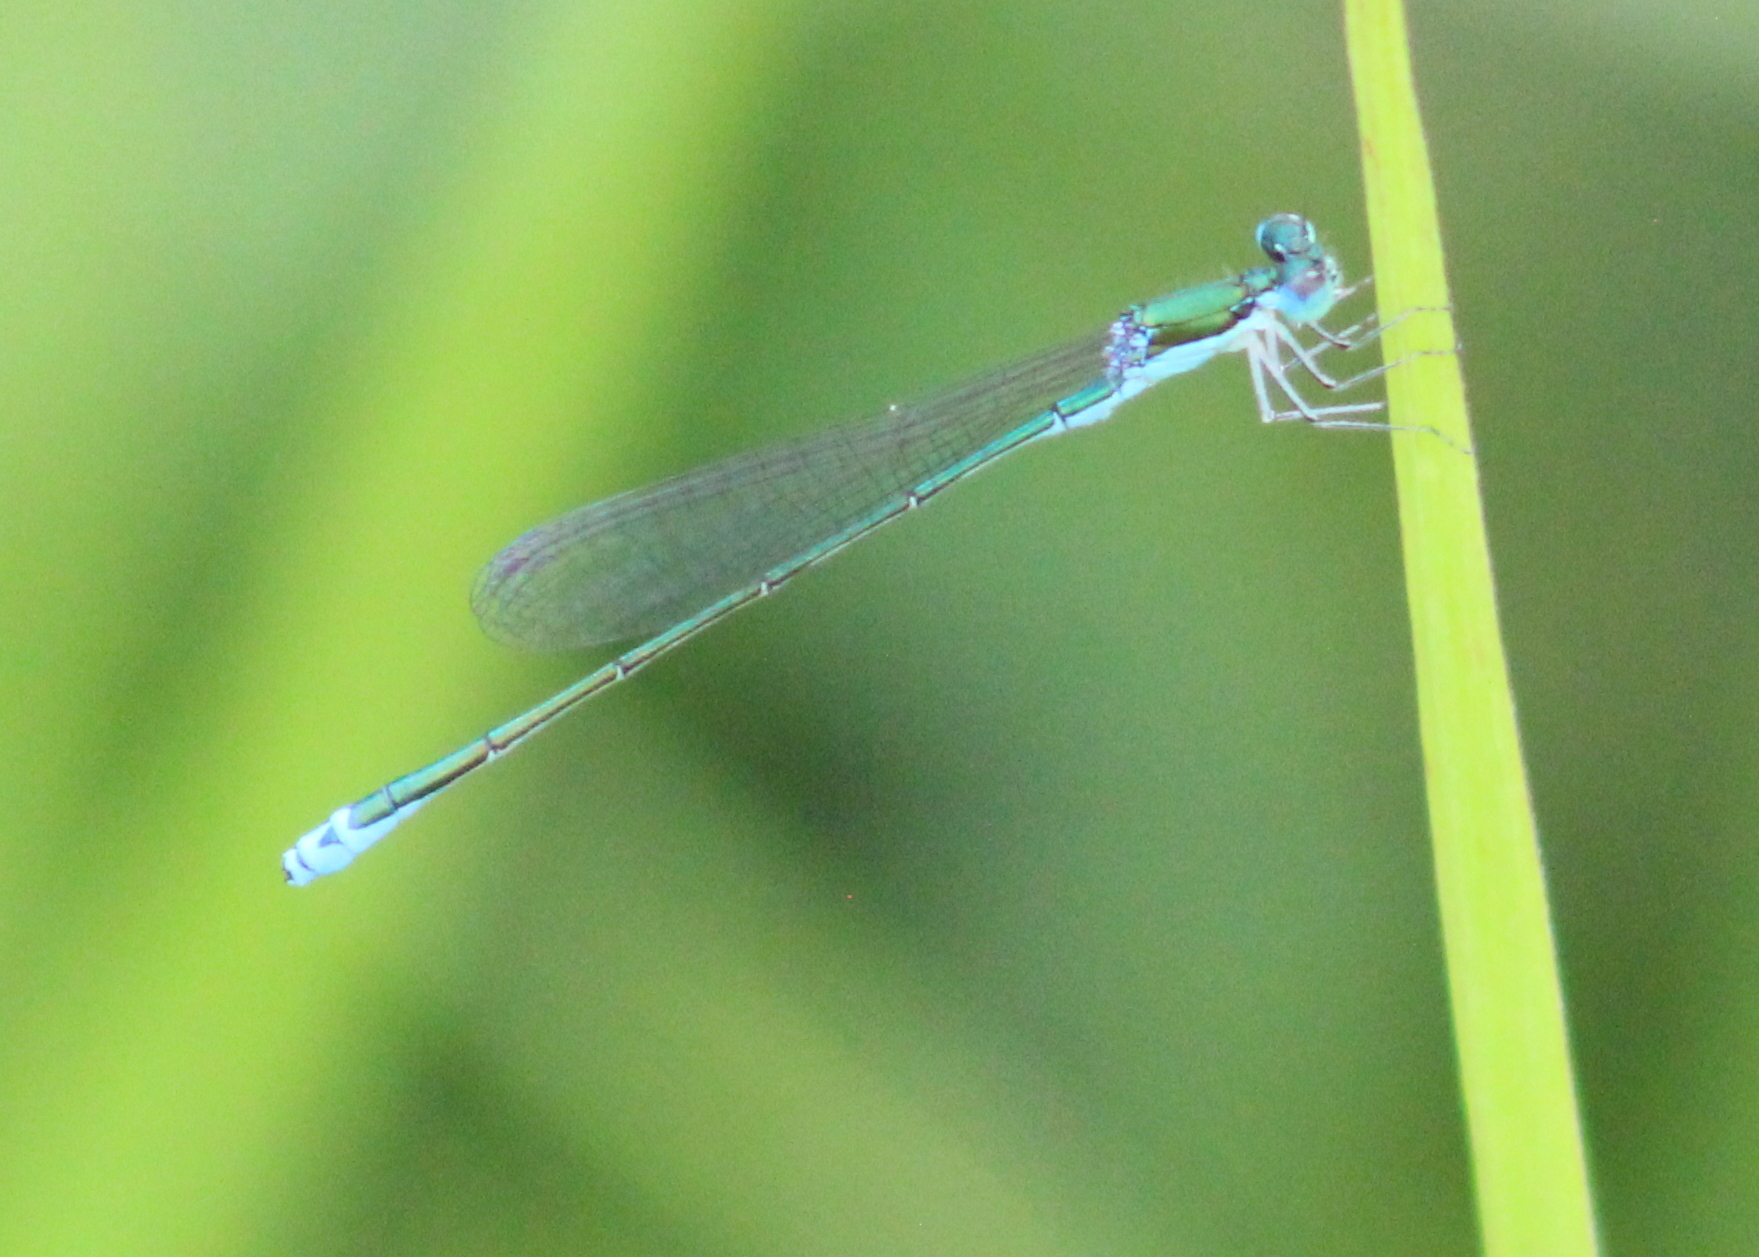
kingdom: Animalia
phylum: Arthropoda
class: Insecta
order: Odonata
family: Coenagrionidae
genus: Nehalennia
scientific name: Nehalennia irene
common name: Sedge sprite
